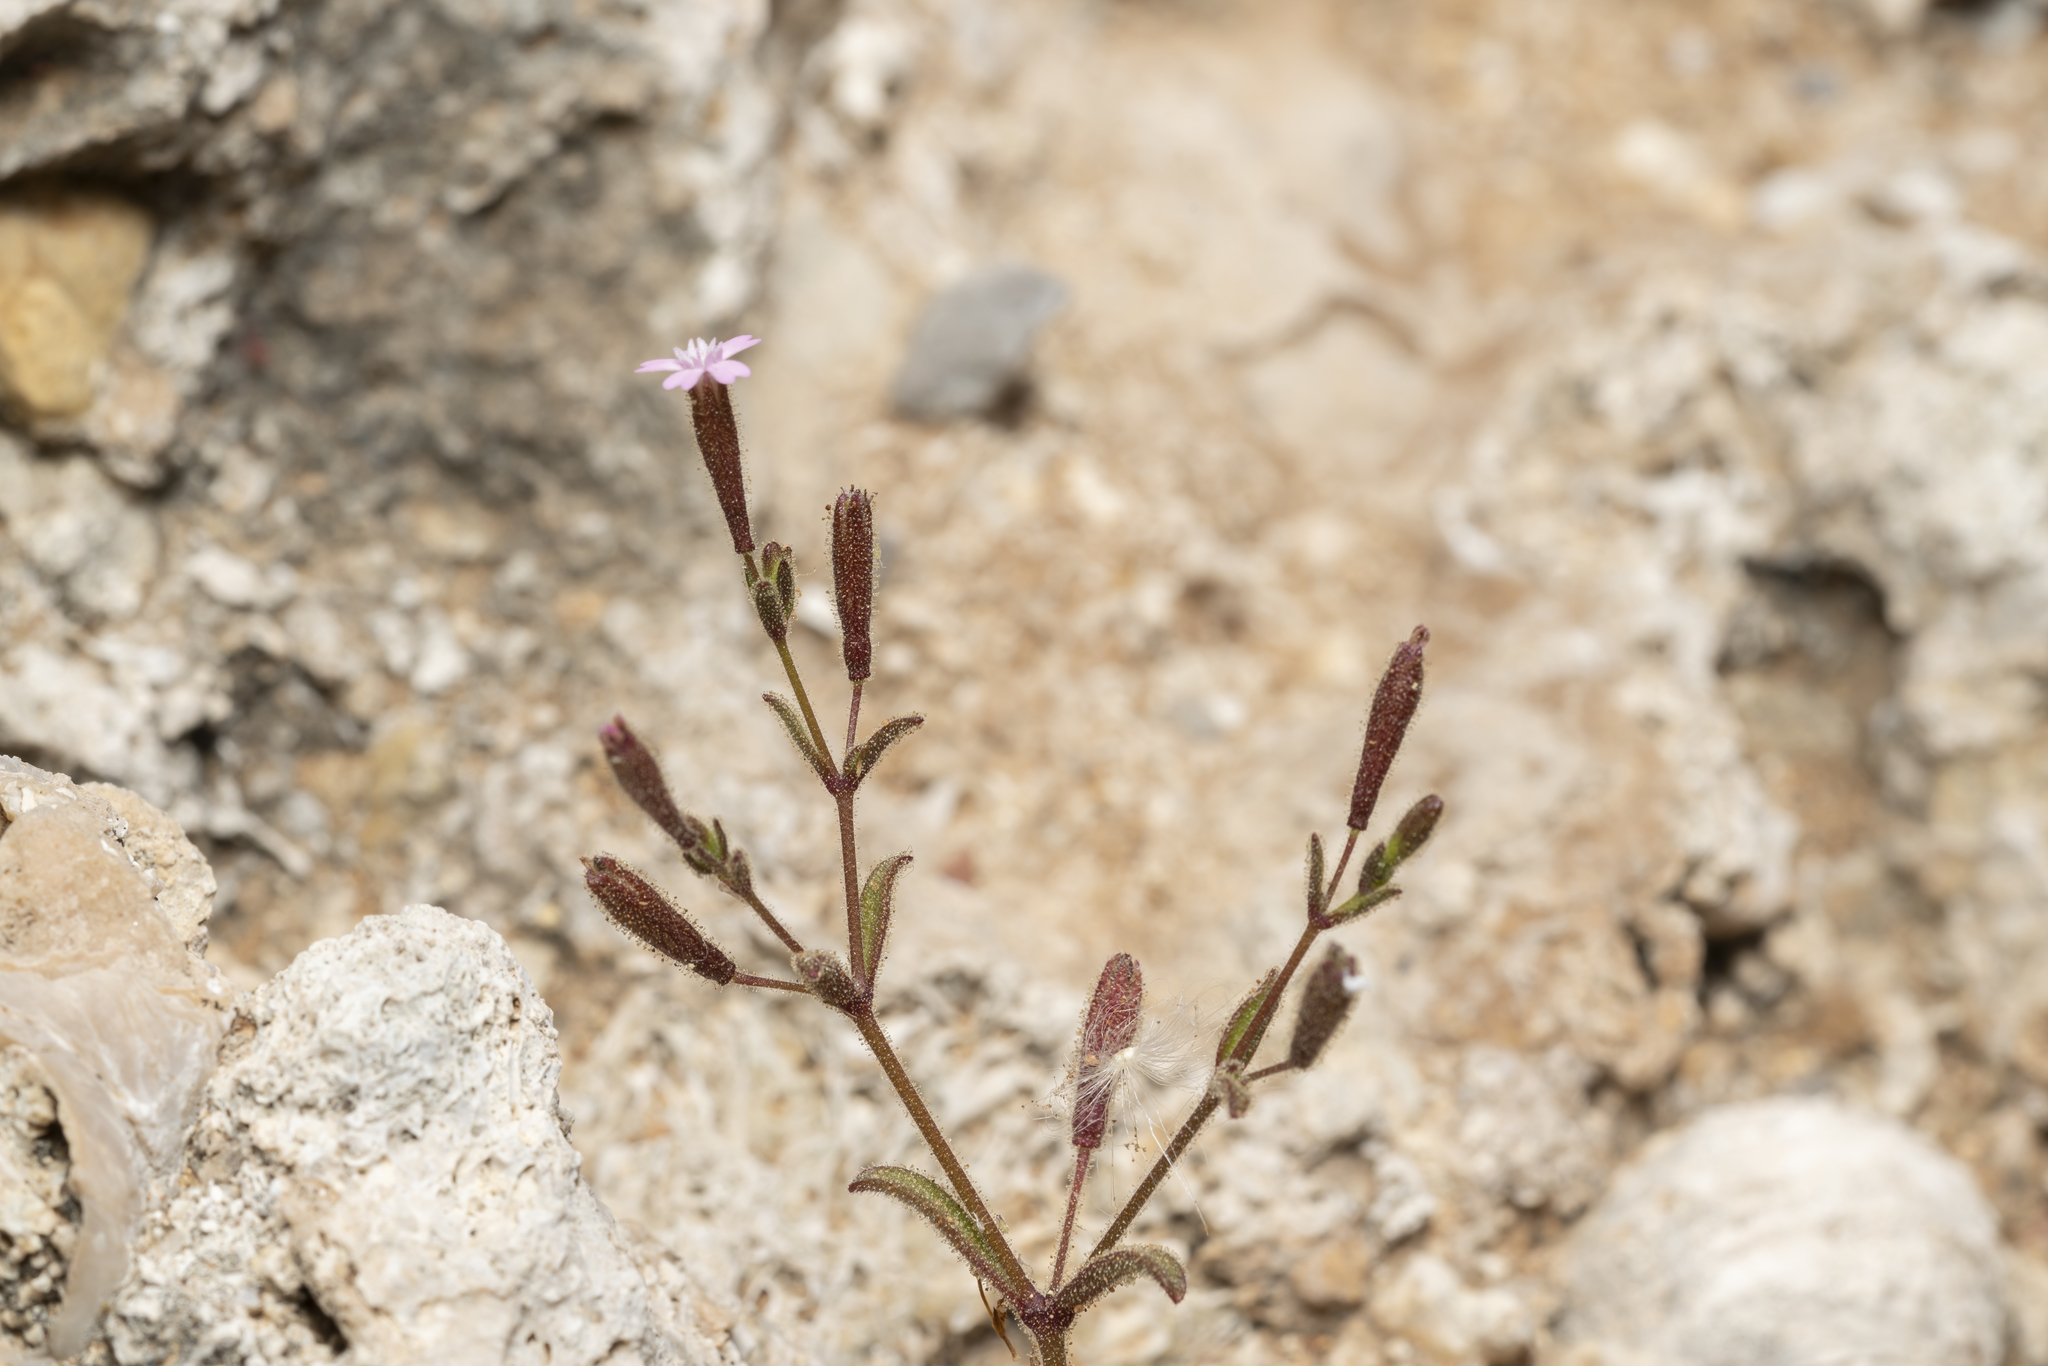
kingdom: Plantae
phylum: Tracheophyta
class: Magnoliopsida
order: Caryophyllales
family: Caryophyllaceae
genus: Silene
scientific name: Silene sedoides
